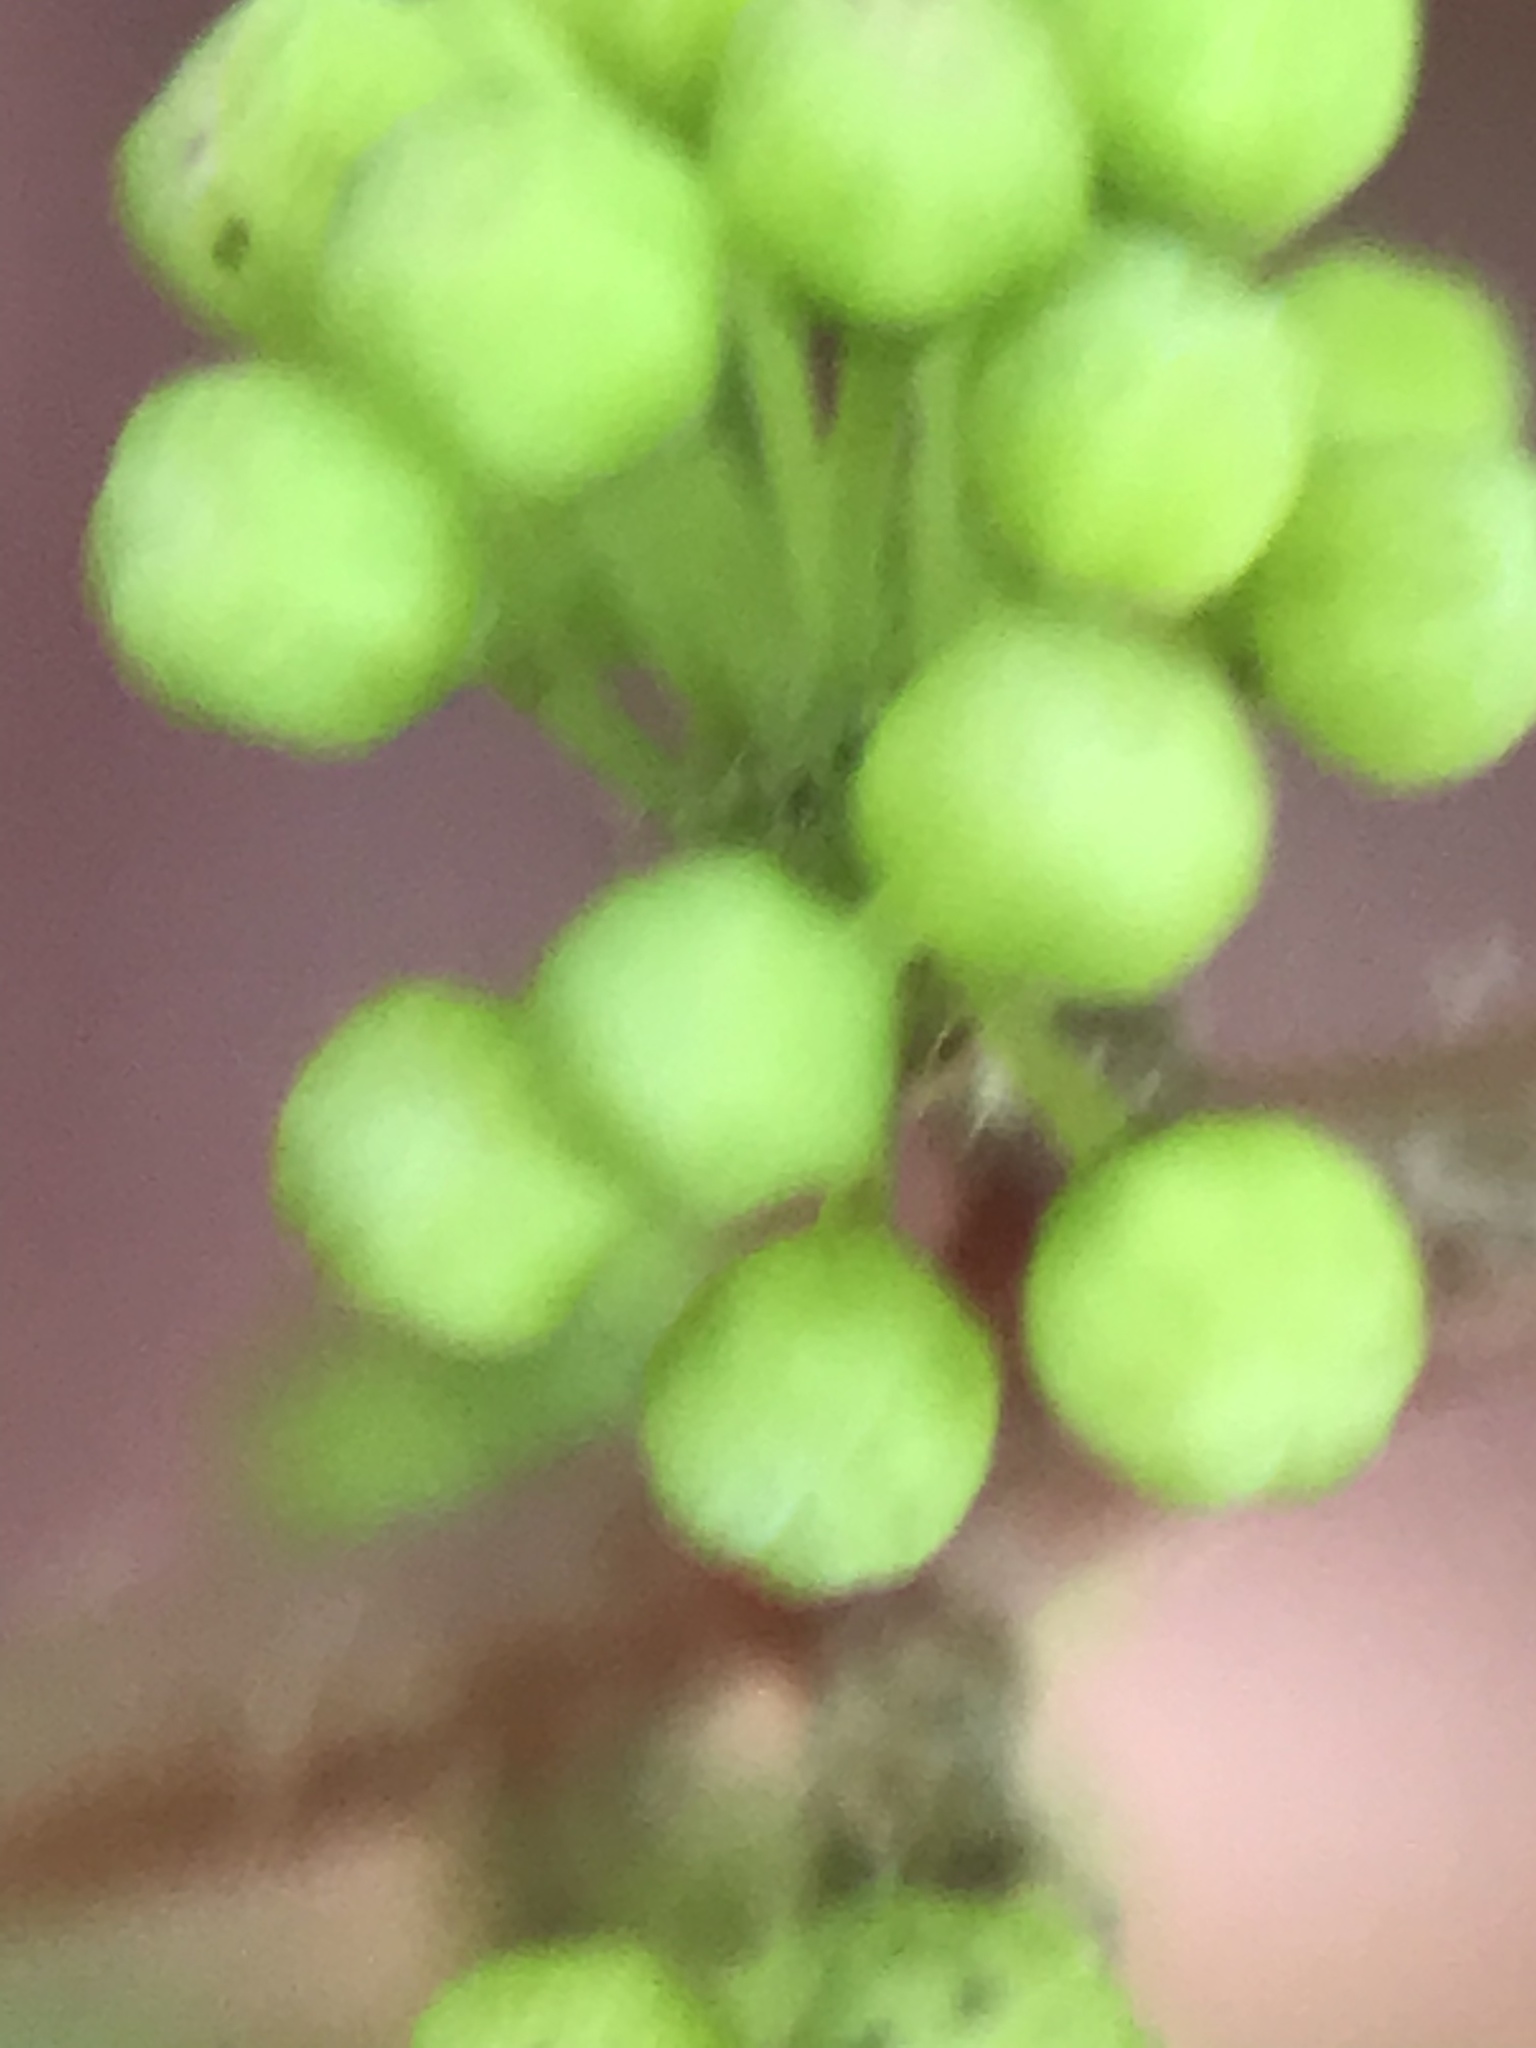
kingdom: Plantae
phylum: Tracheophyta
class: Magnoliopsida
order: Vitales
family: Vitaceae
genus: Vitis
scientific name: Vitis cinerea
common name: Ashy grape
